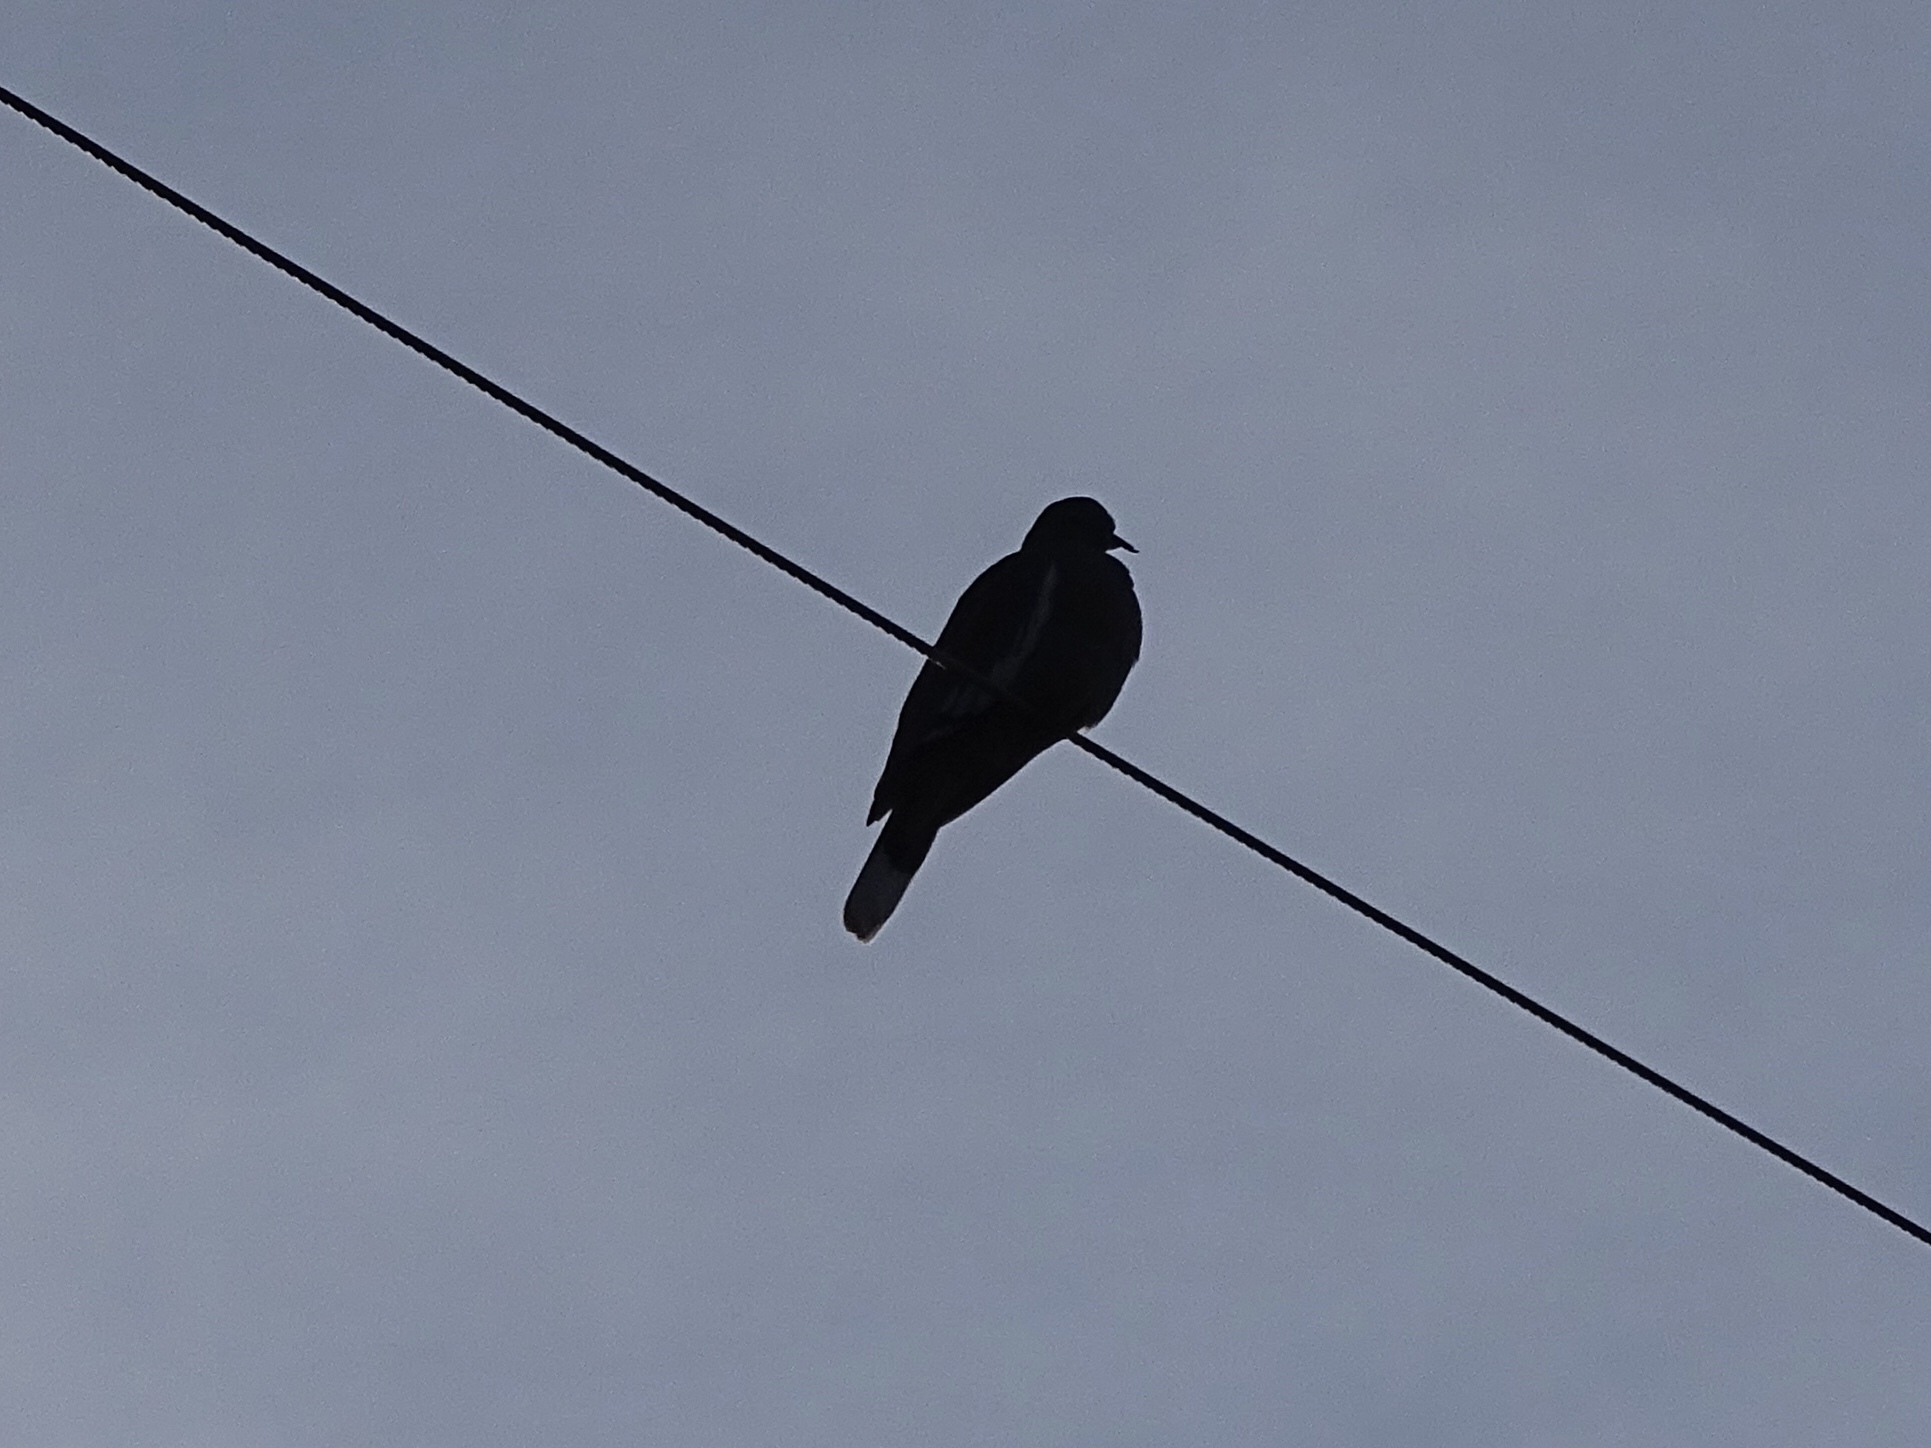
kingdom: Animalia
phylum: Chordata
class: Aves
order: Columbiformes
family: Columbidae
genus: Zenaida
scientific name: Zenaida asiatica
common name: White-winged dove
